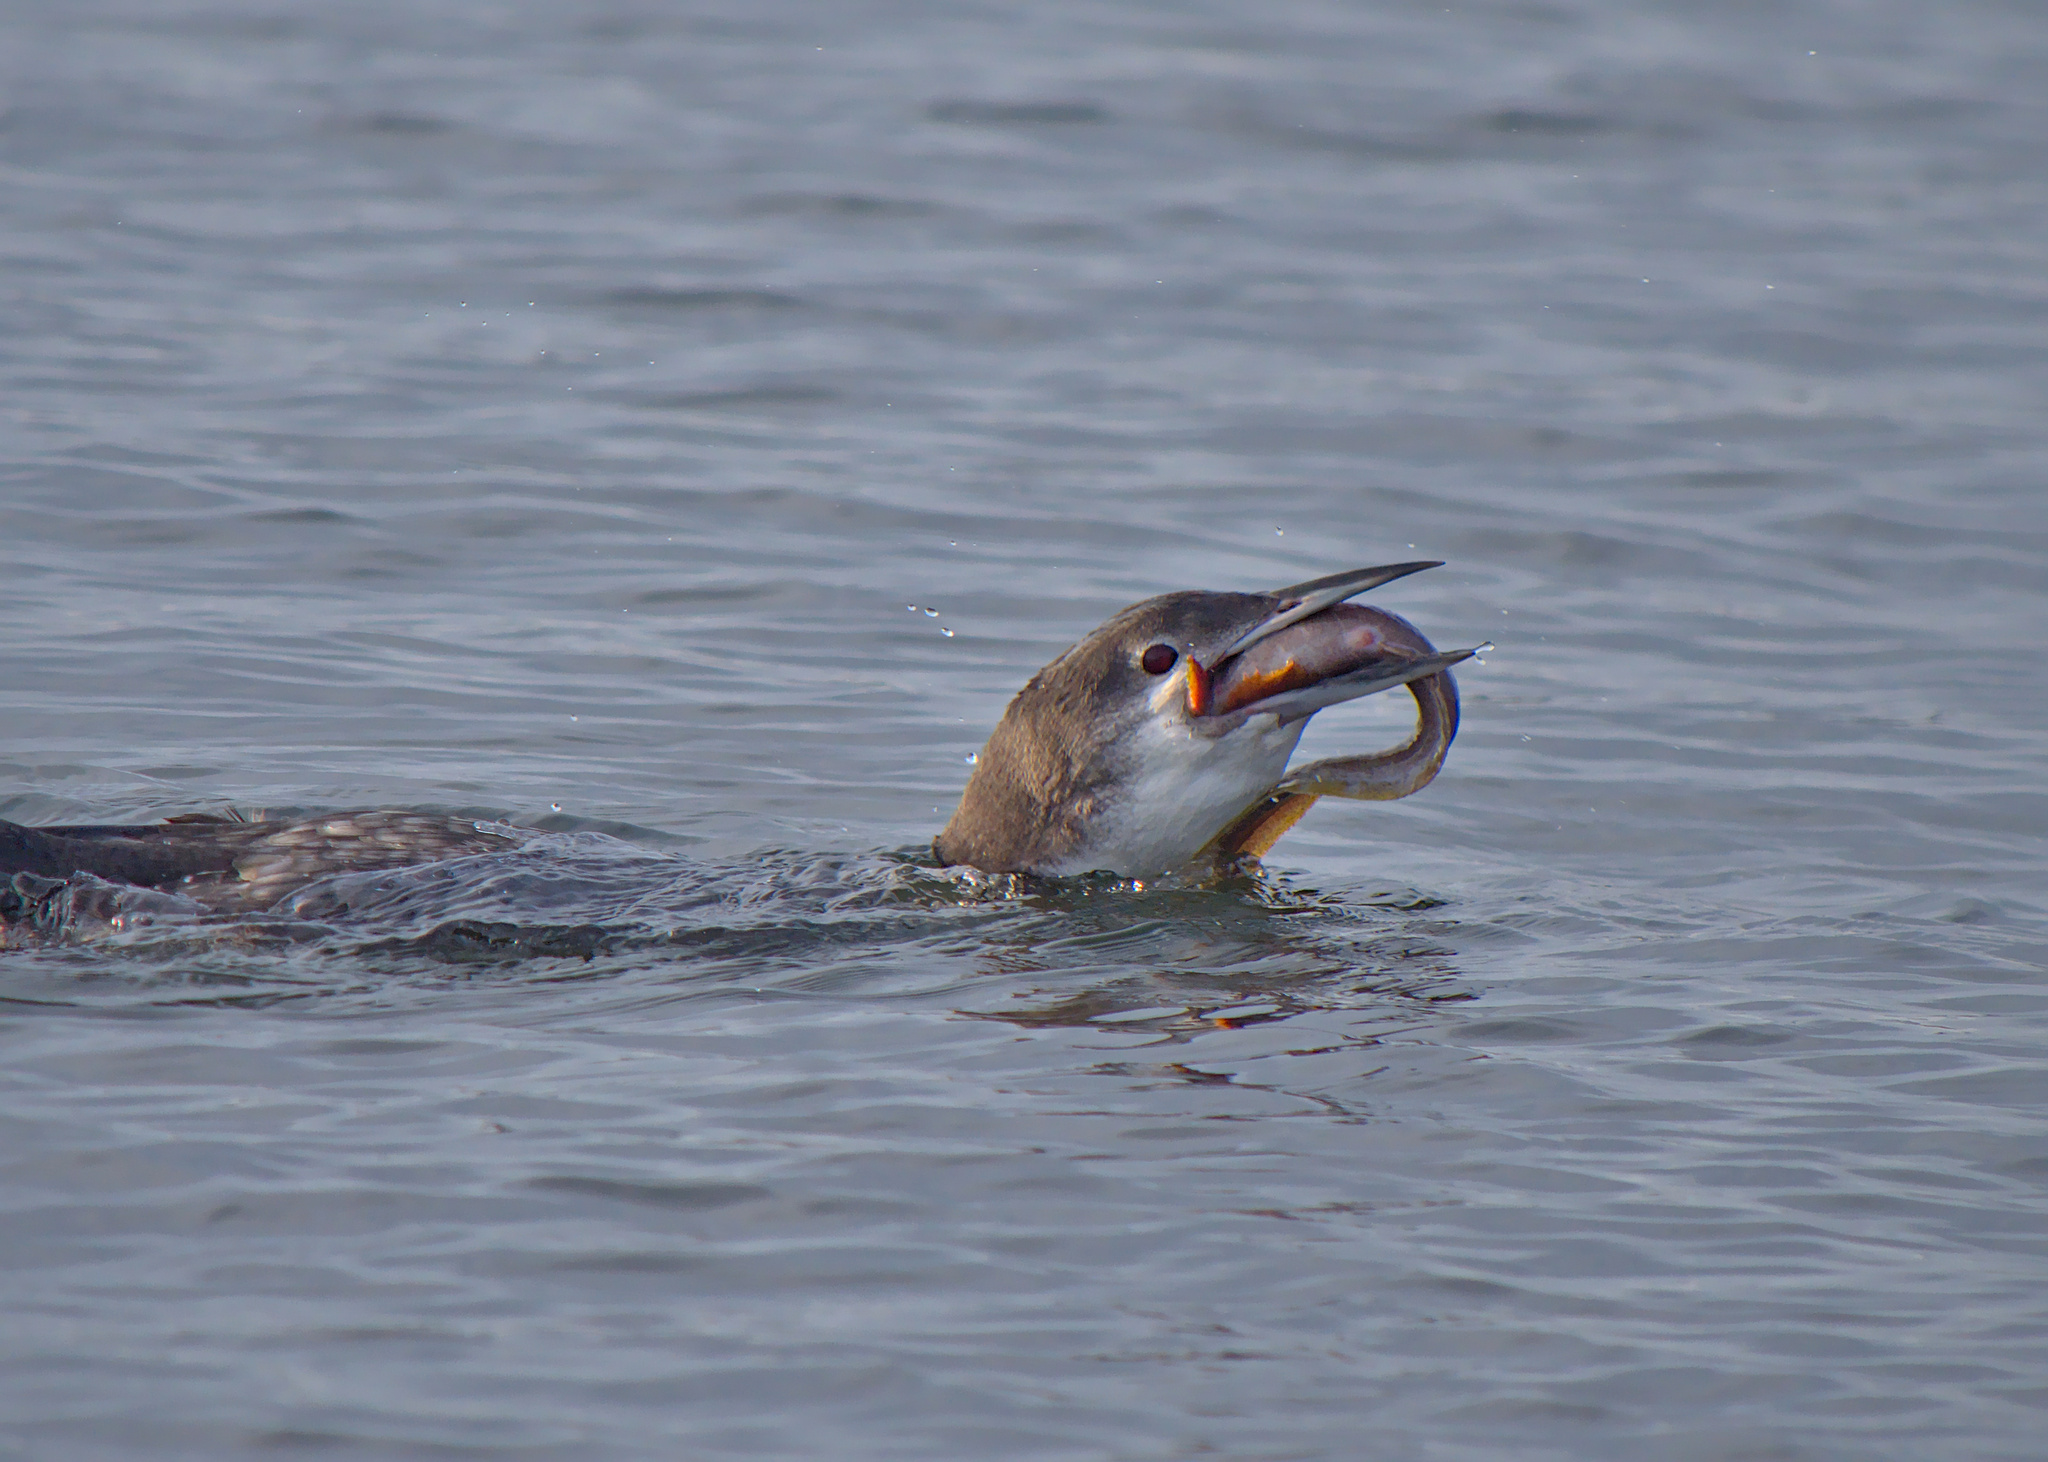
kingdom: Animalia
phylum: Chordata
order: Perciformes
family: Zoarcidae
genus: Zoarces
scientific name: Zoarces americanus
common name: Mother-of-eels
